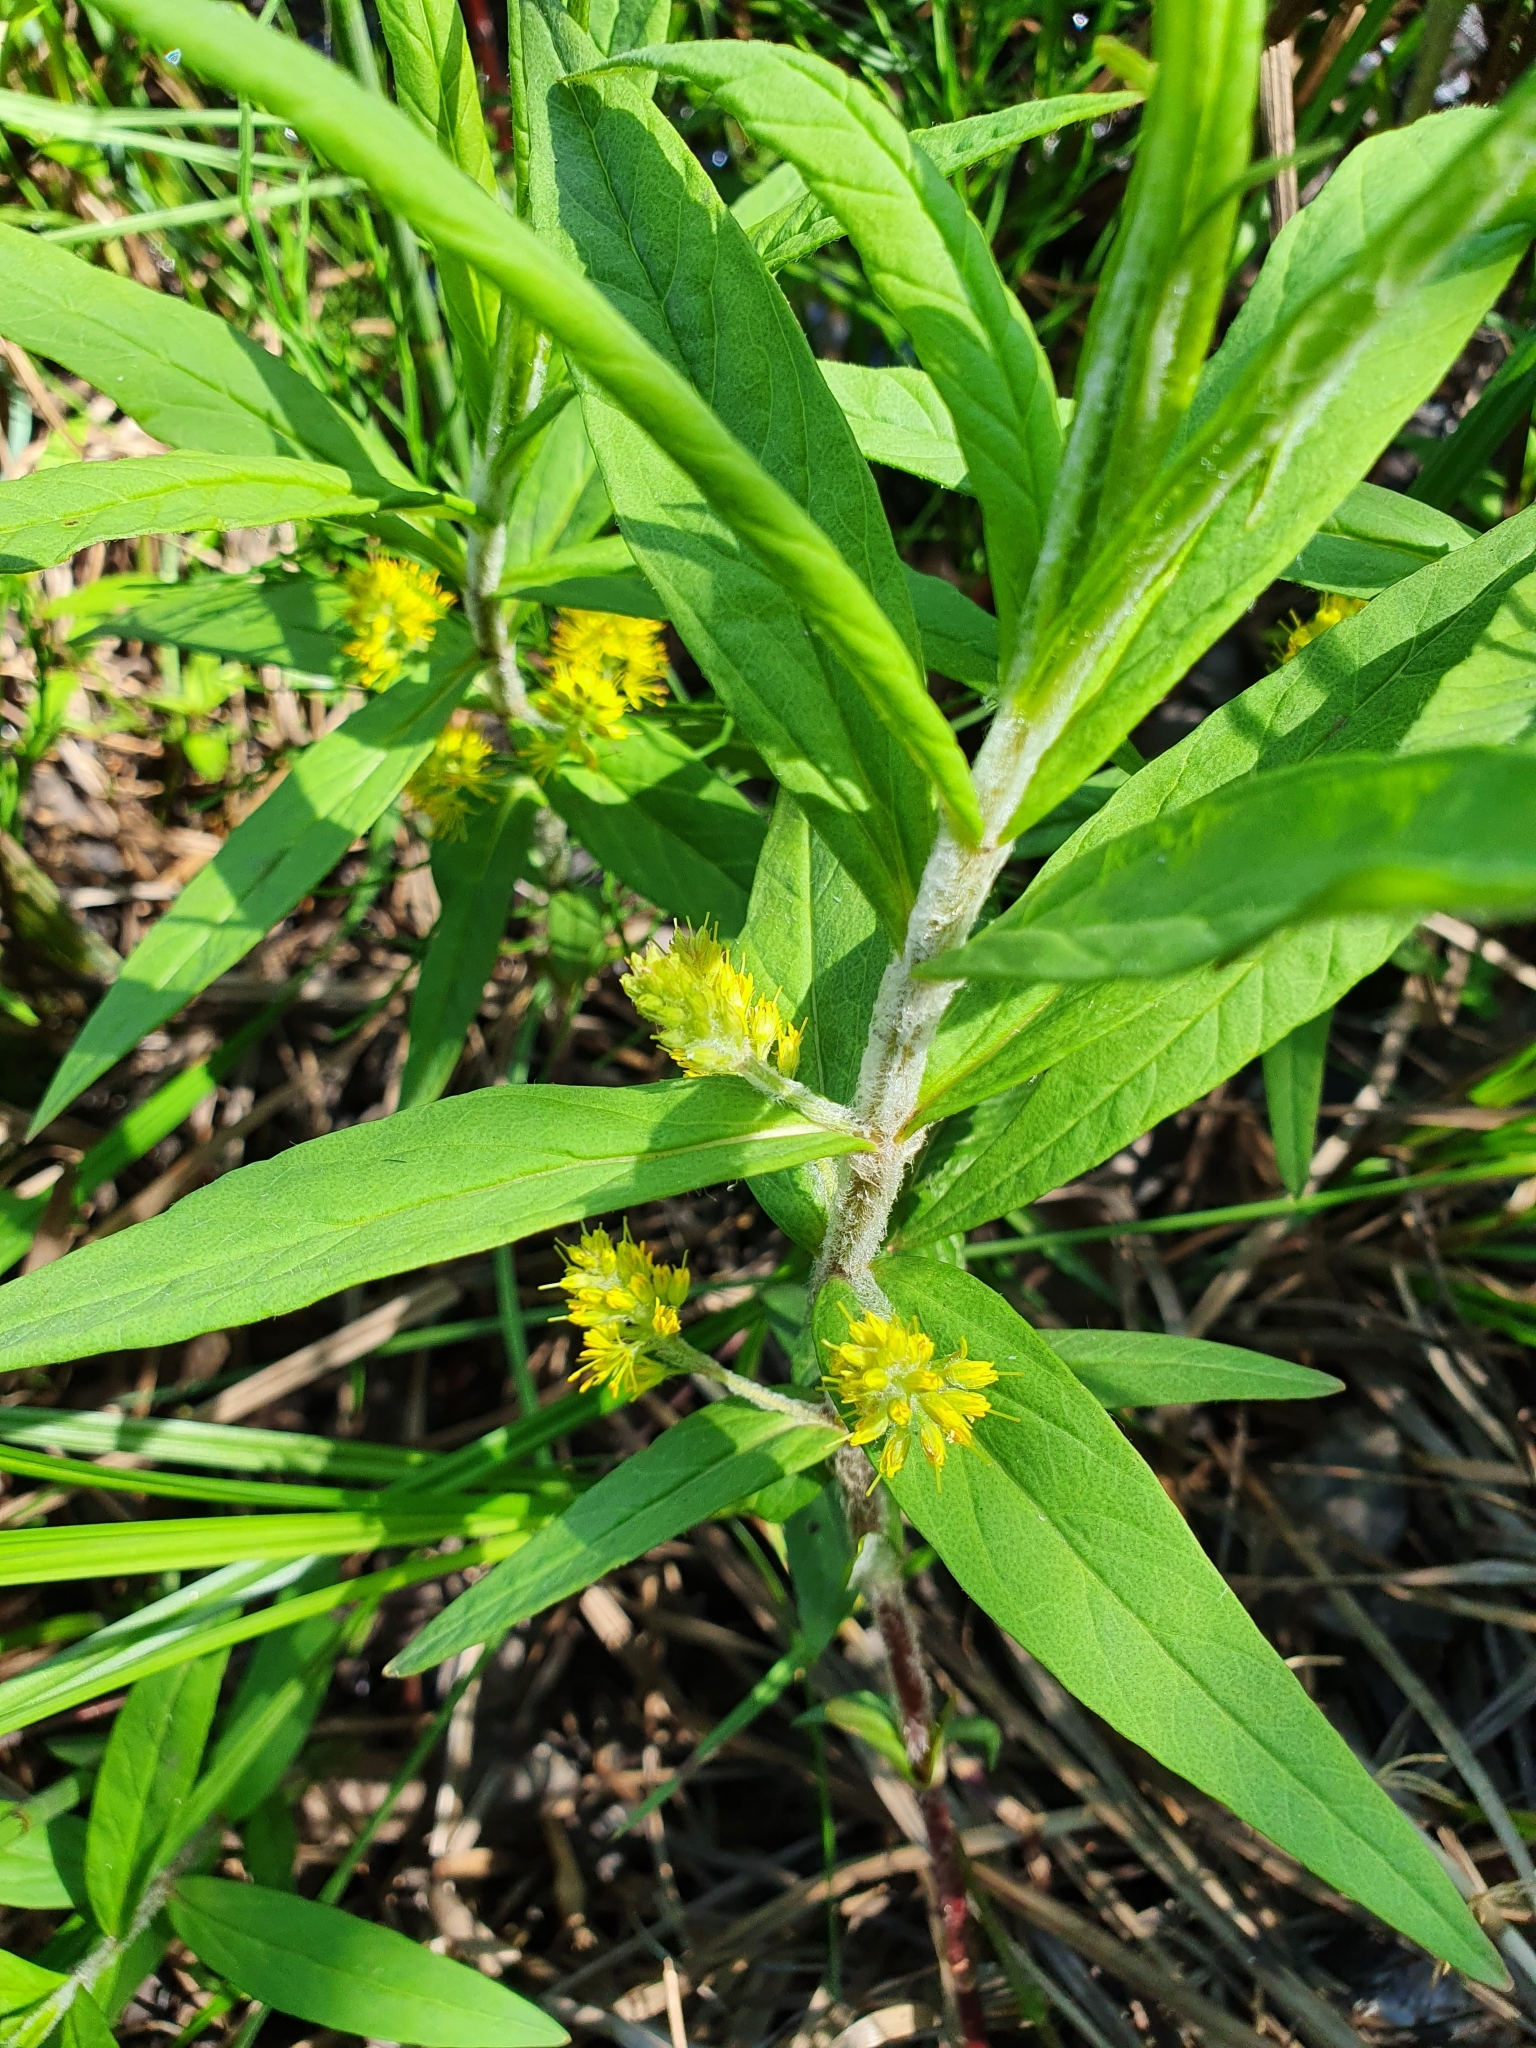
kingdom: Plantae
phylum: Tracheophyta
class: Magnoliopsida
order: Ericales
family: Primulaceae
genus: Lysimachia
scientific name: Lysimachia thyrsiflora
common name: Tufted loosestrife
